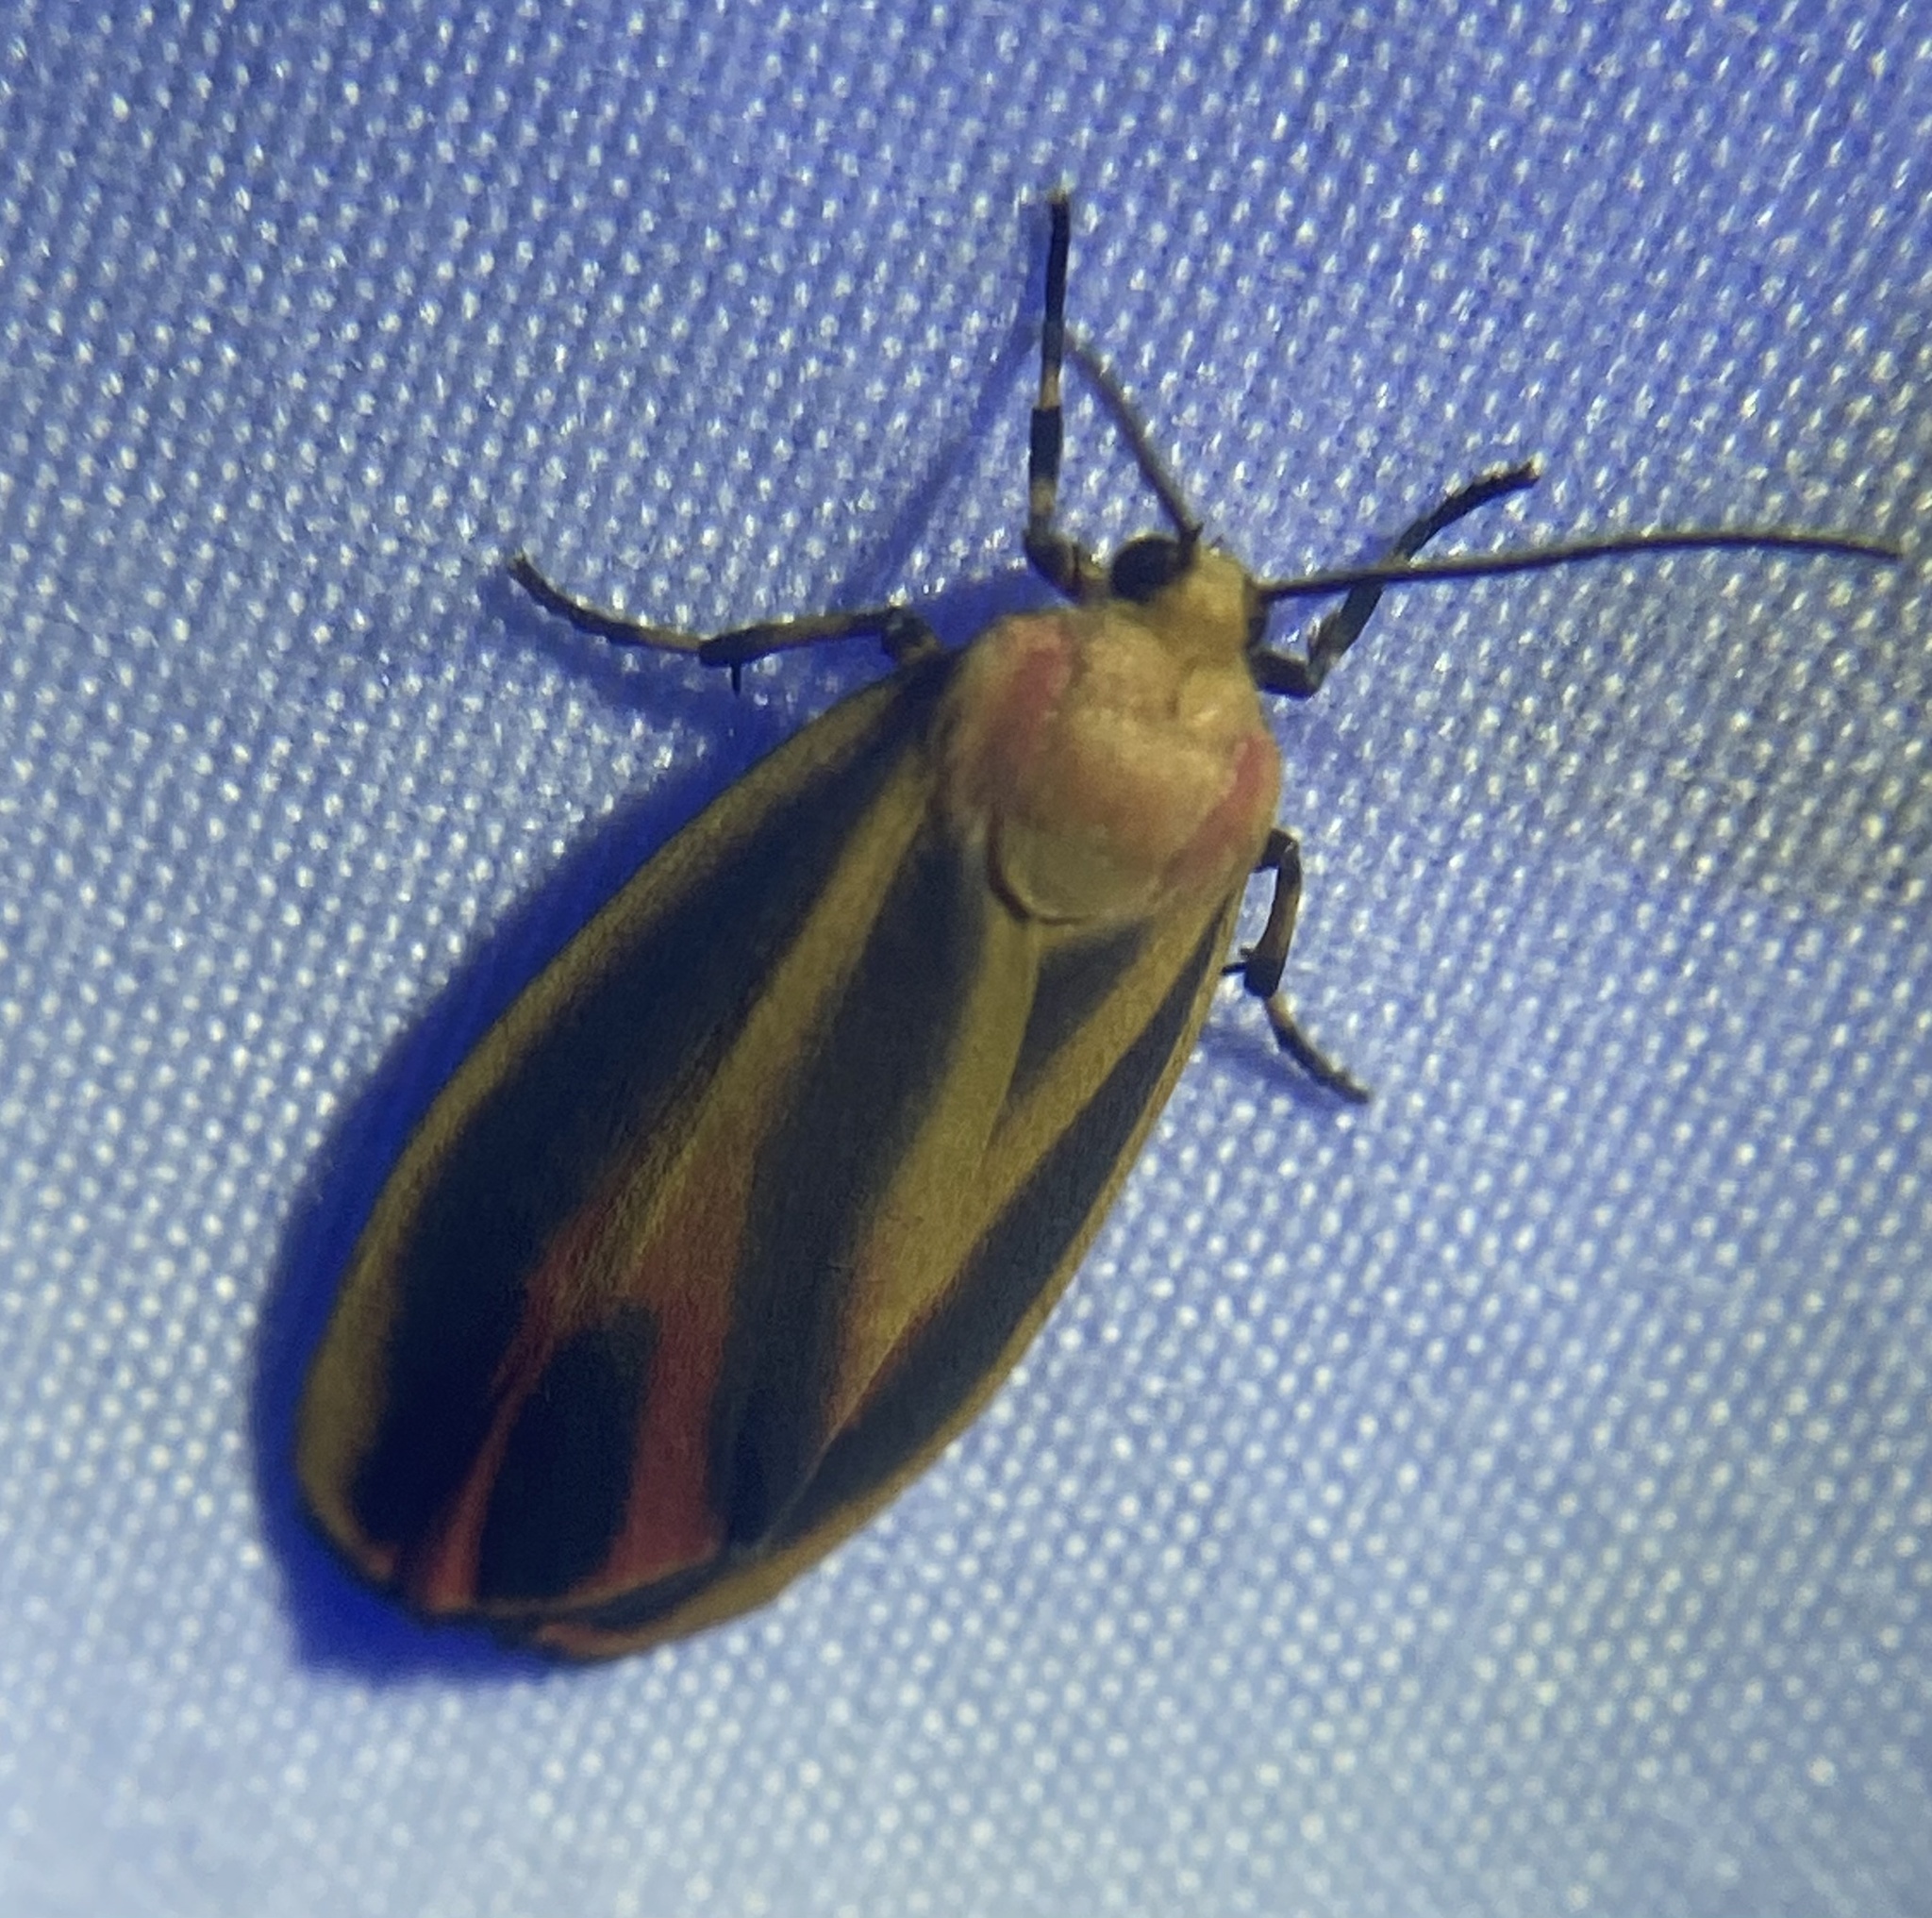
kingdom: Animalia
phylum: Arthropoda
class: Insecta
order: Lepidoptera
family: Erebidae
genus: Hypoprepia
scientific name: Hypoprepia fucosa
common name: Painted lichen moth
